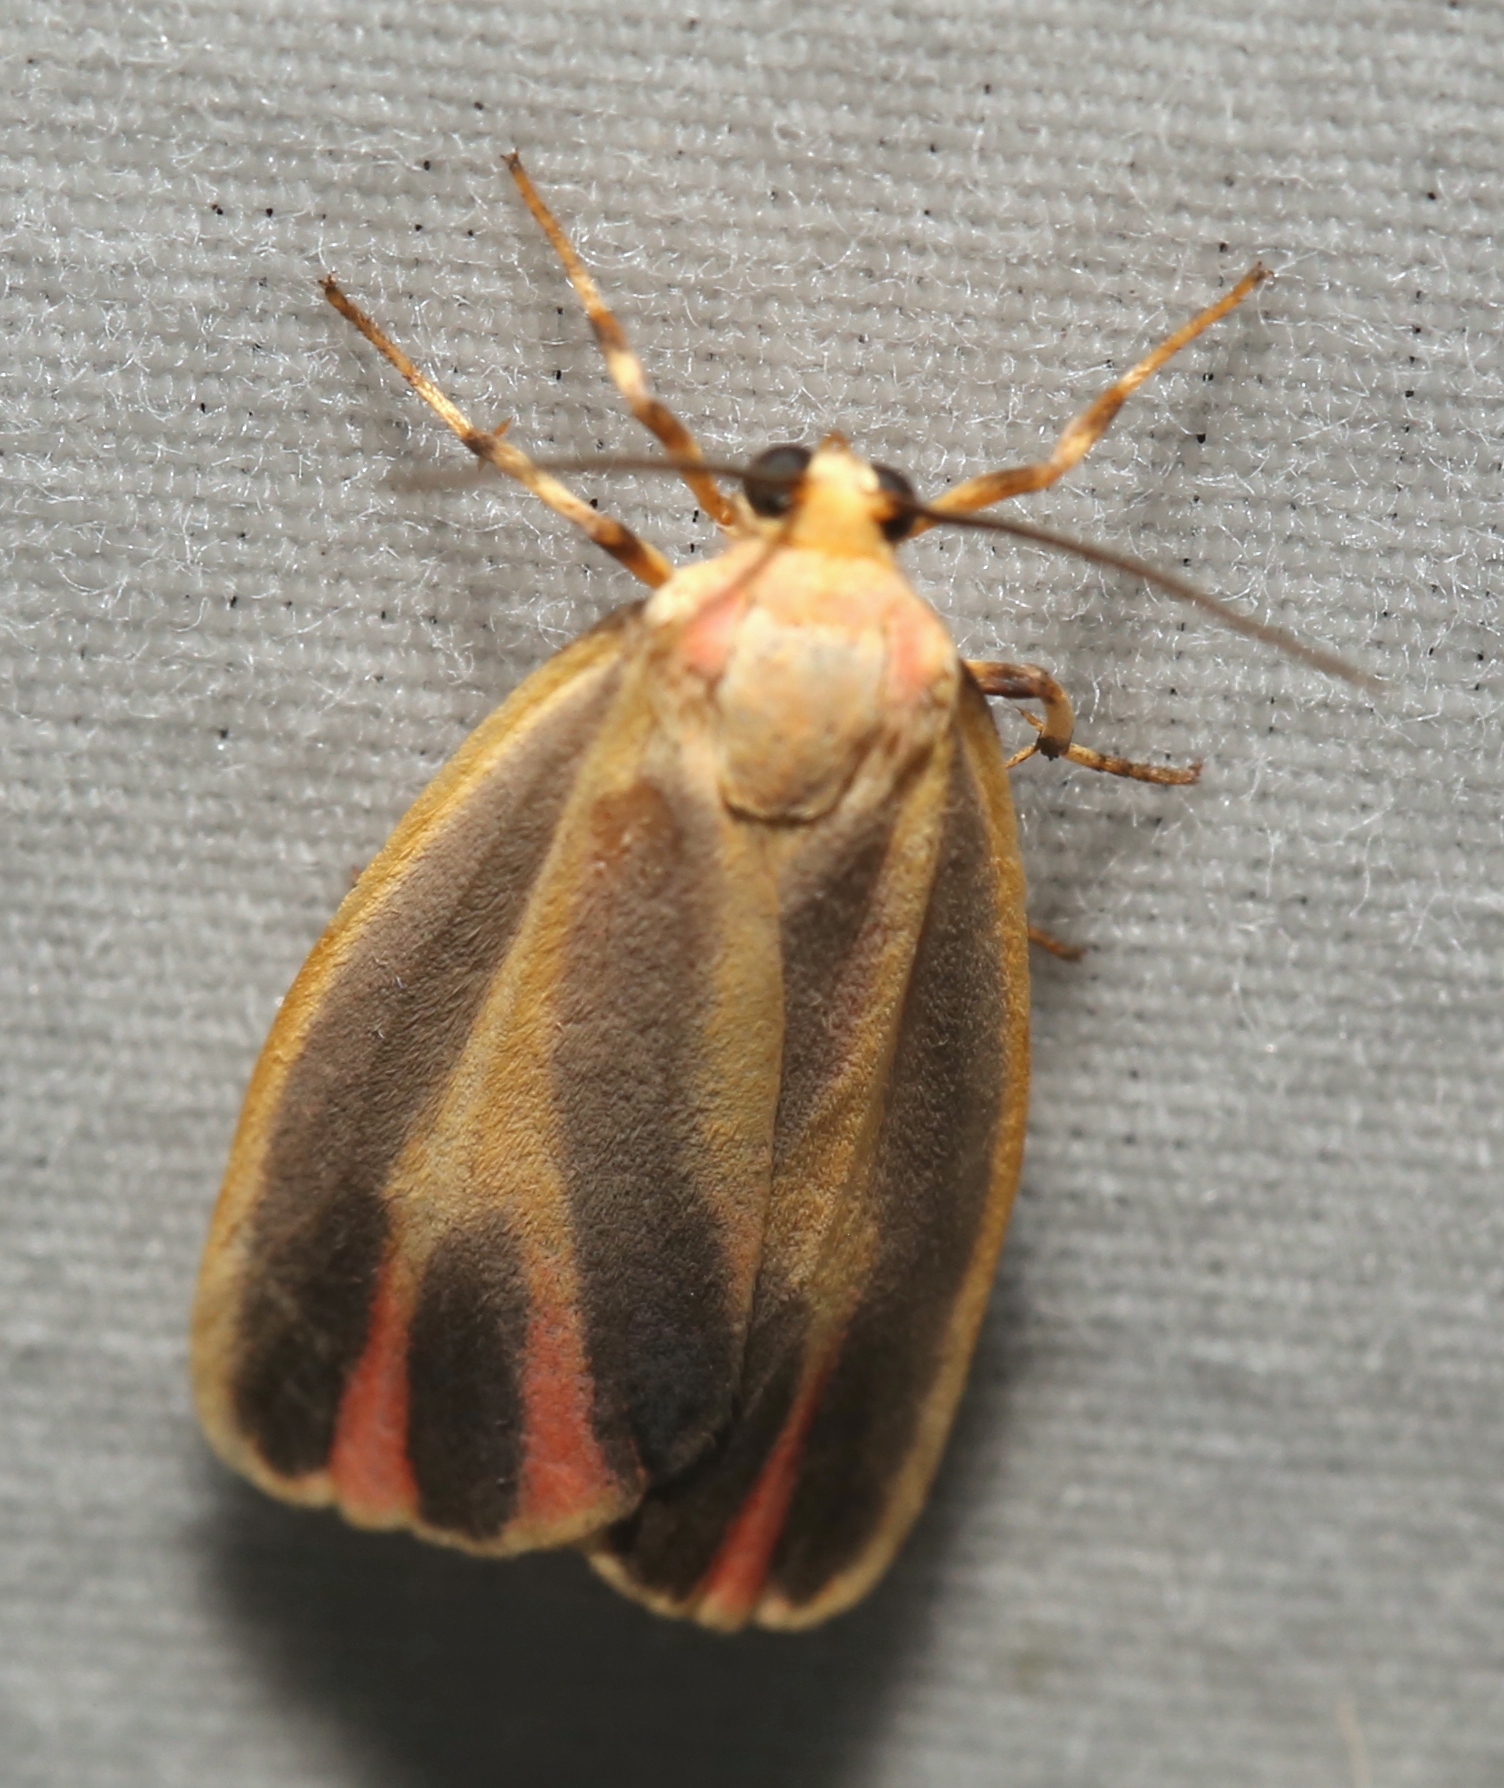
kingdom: Animalia
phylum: Arthropoda
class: Insecta
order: Lepidoptera
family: Erebidae
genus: Hypoprepia
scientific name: Hypoprepia fucosa
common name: Painted lichen moth
